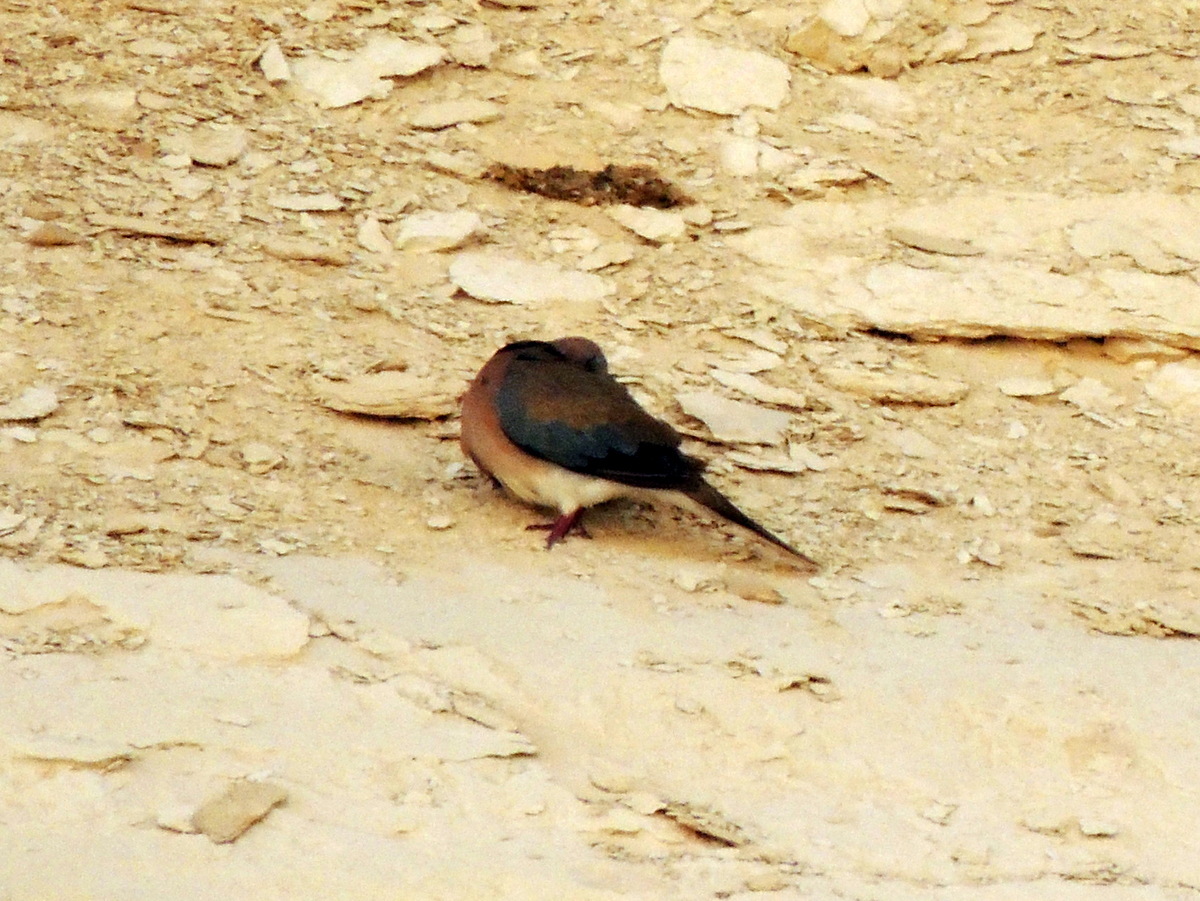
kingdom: Animalia
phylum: Chordata
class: Aves
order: Columbiformes
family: Columbidae
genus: Spilopelia
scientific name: Spilopelia senegalensis
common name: Laughing dove
